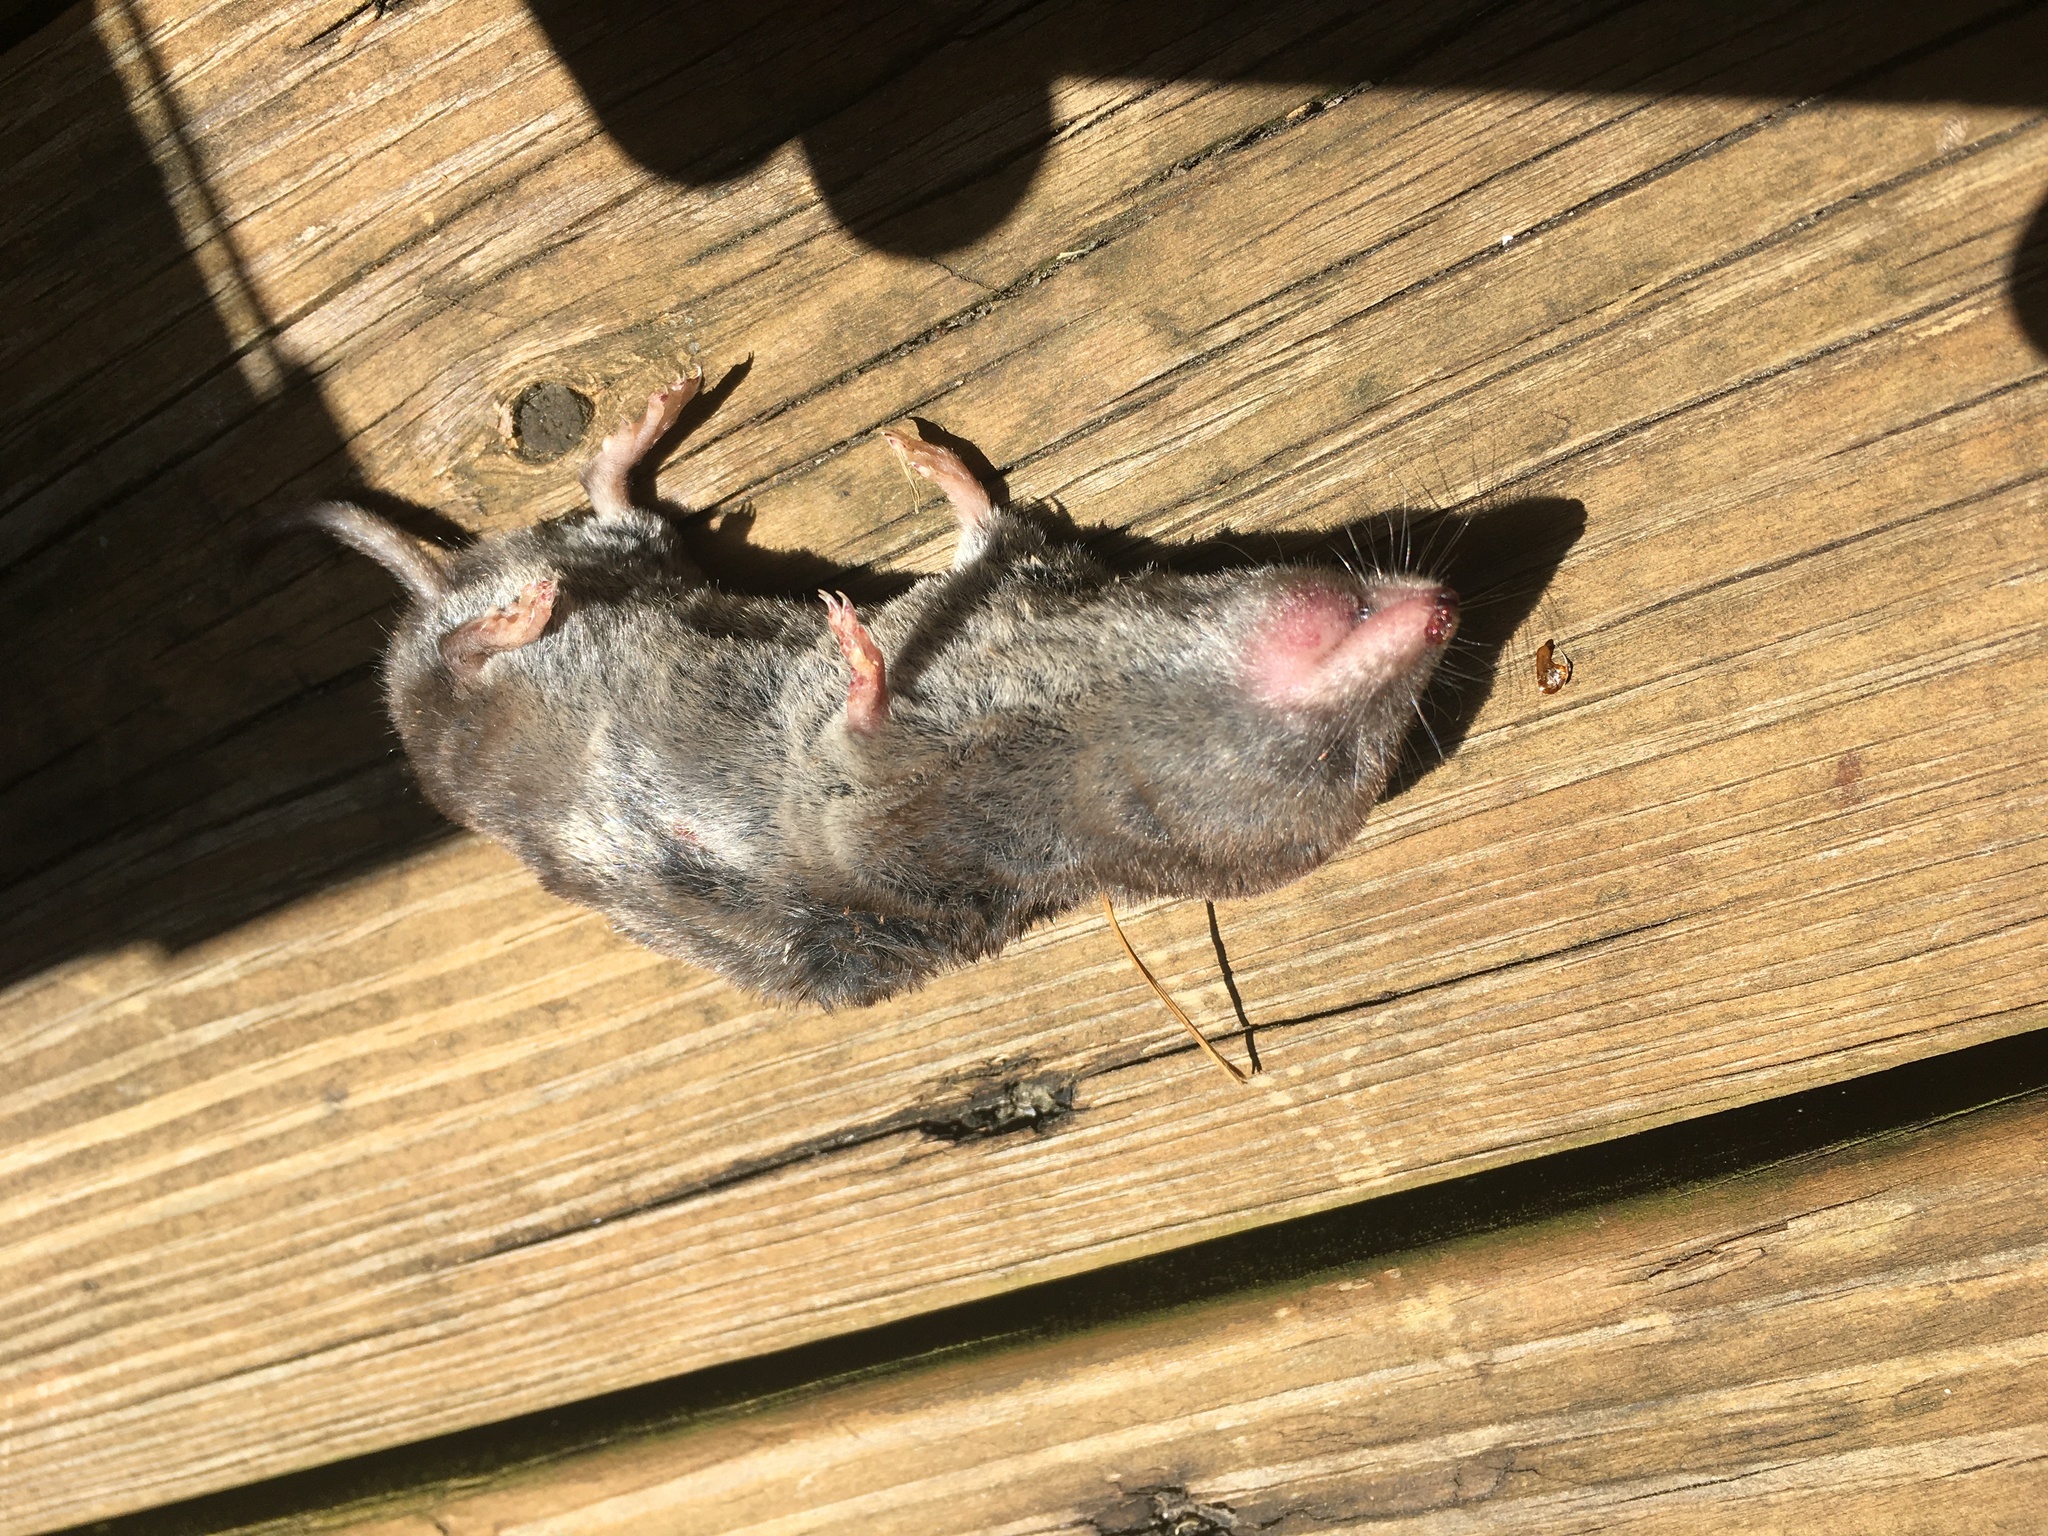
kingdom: Animalia
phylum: Chordata
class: Mammalia
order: Soricomorpha
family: Soricidae
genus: Blarina
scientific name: Blarina brevicauda
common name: Northern short-tailed shrew
